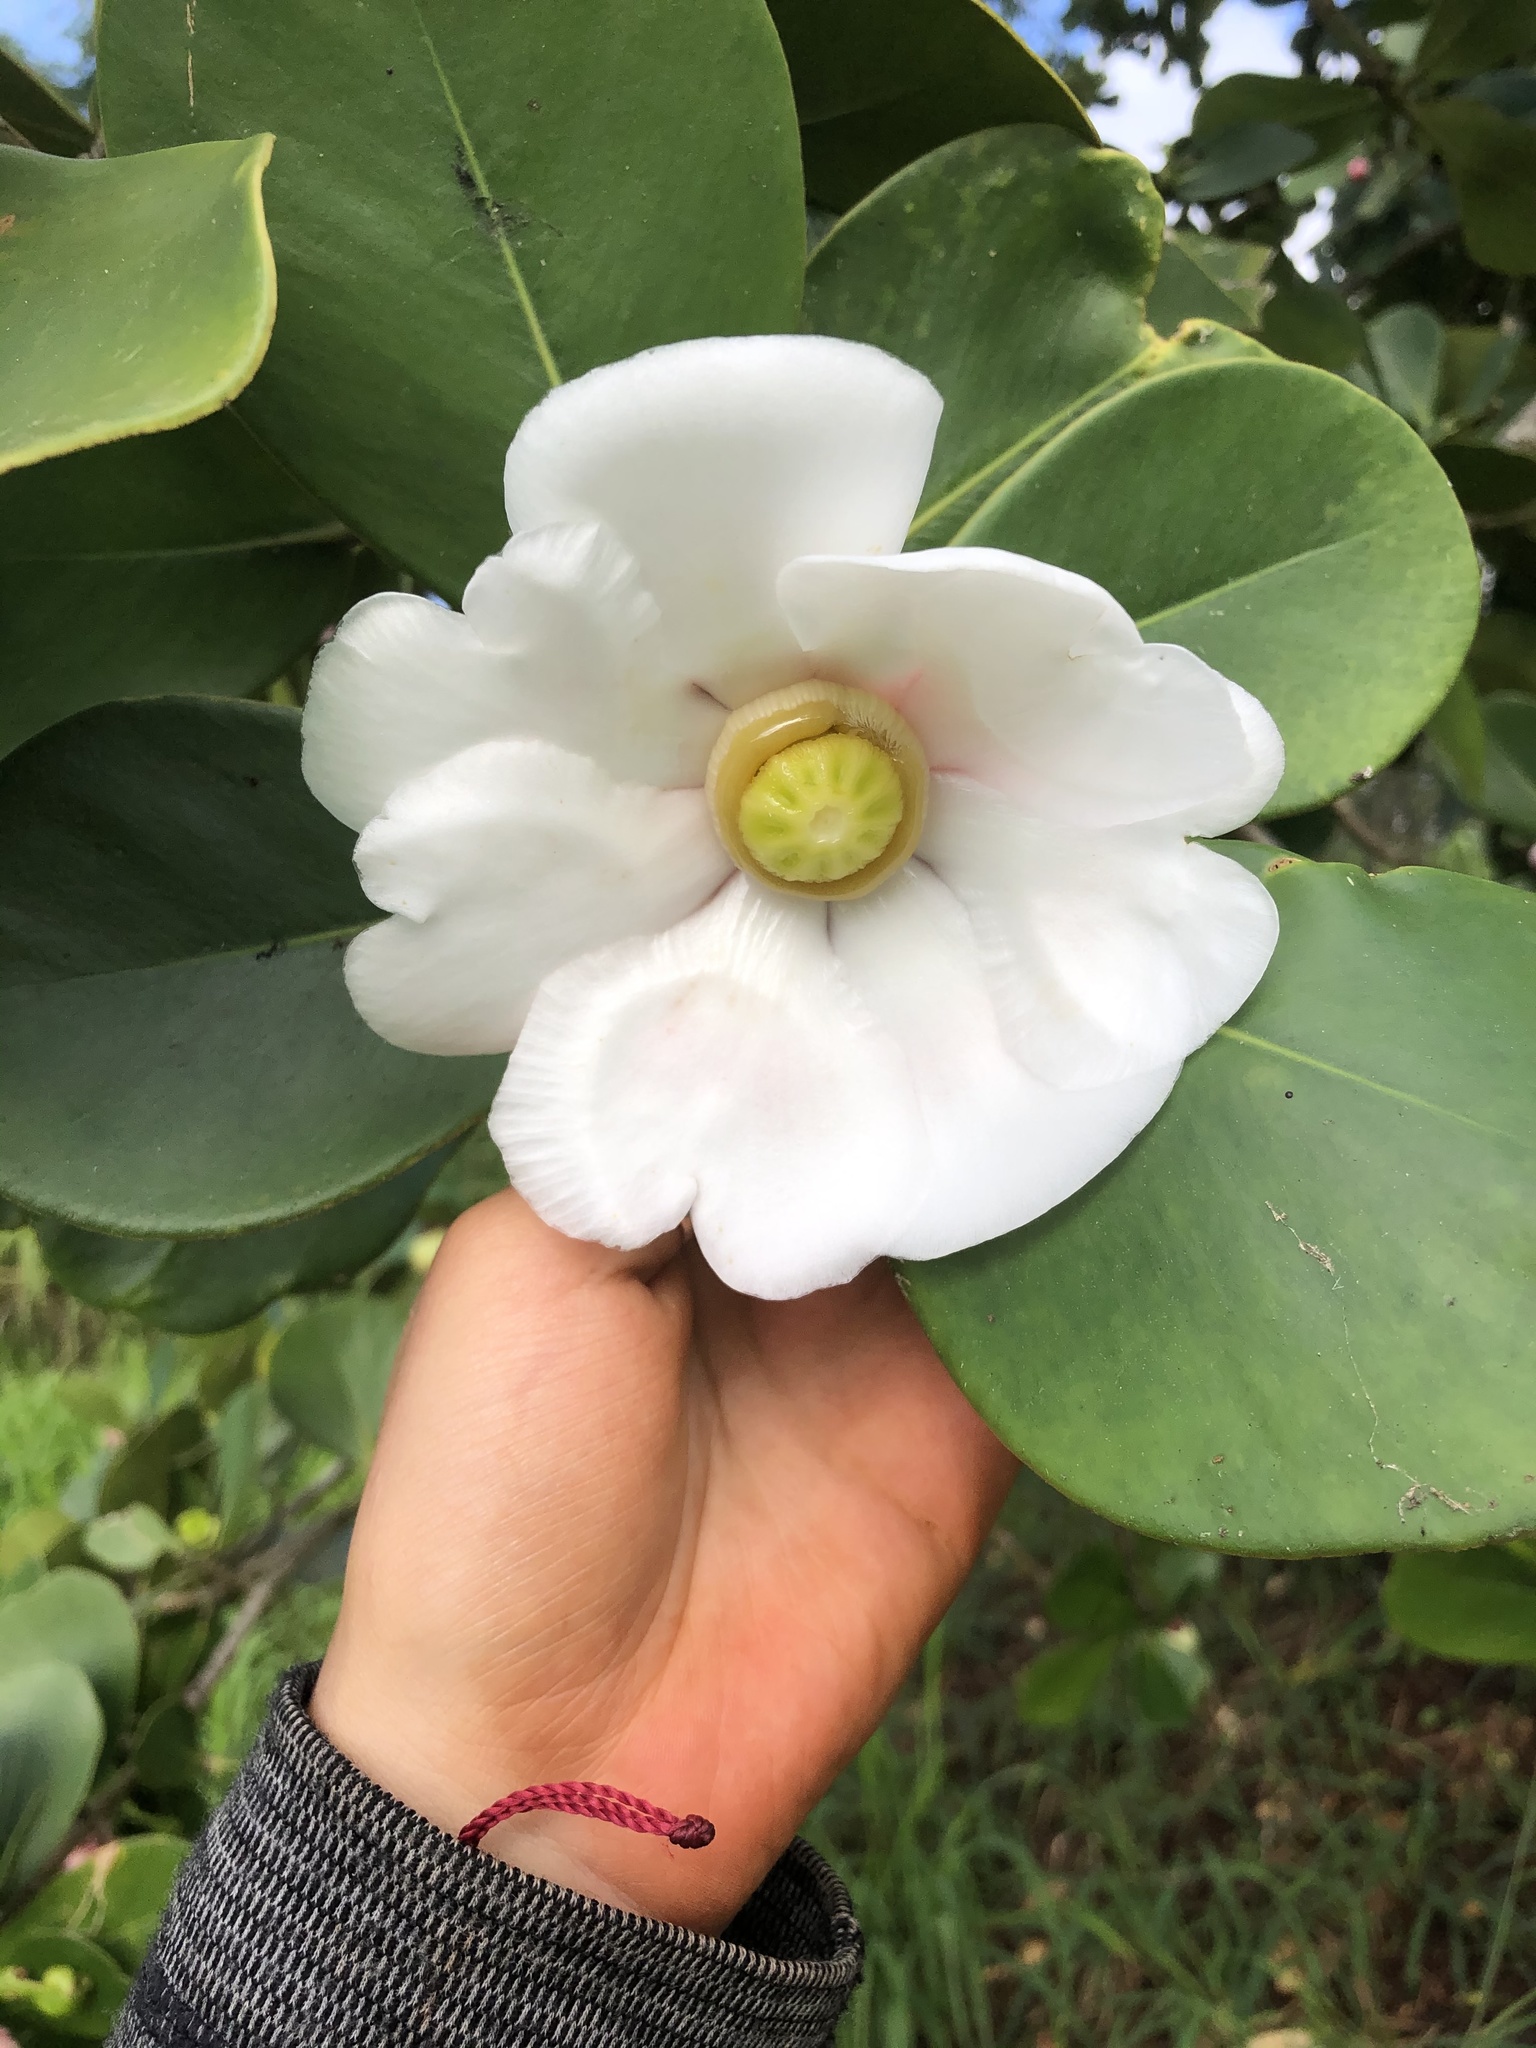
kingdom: Plantae
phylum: Tracheophyta
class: Magnoliopsida
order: Malpighiales
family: Clusiaceae
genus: Clusia
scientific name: Clusia rosea
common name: Scotch attorney
